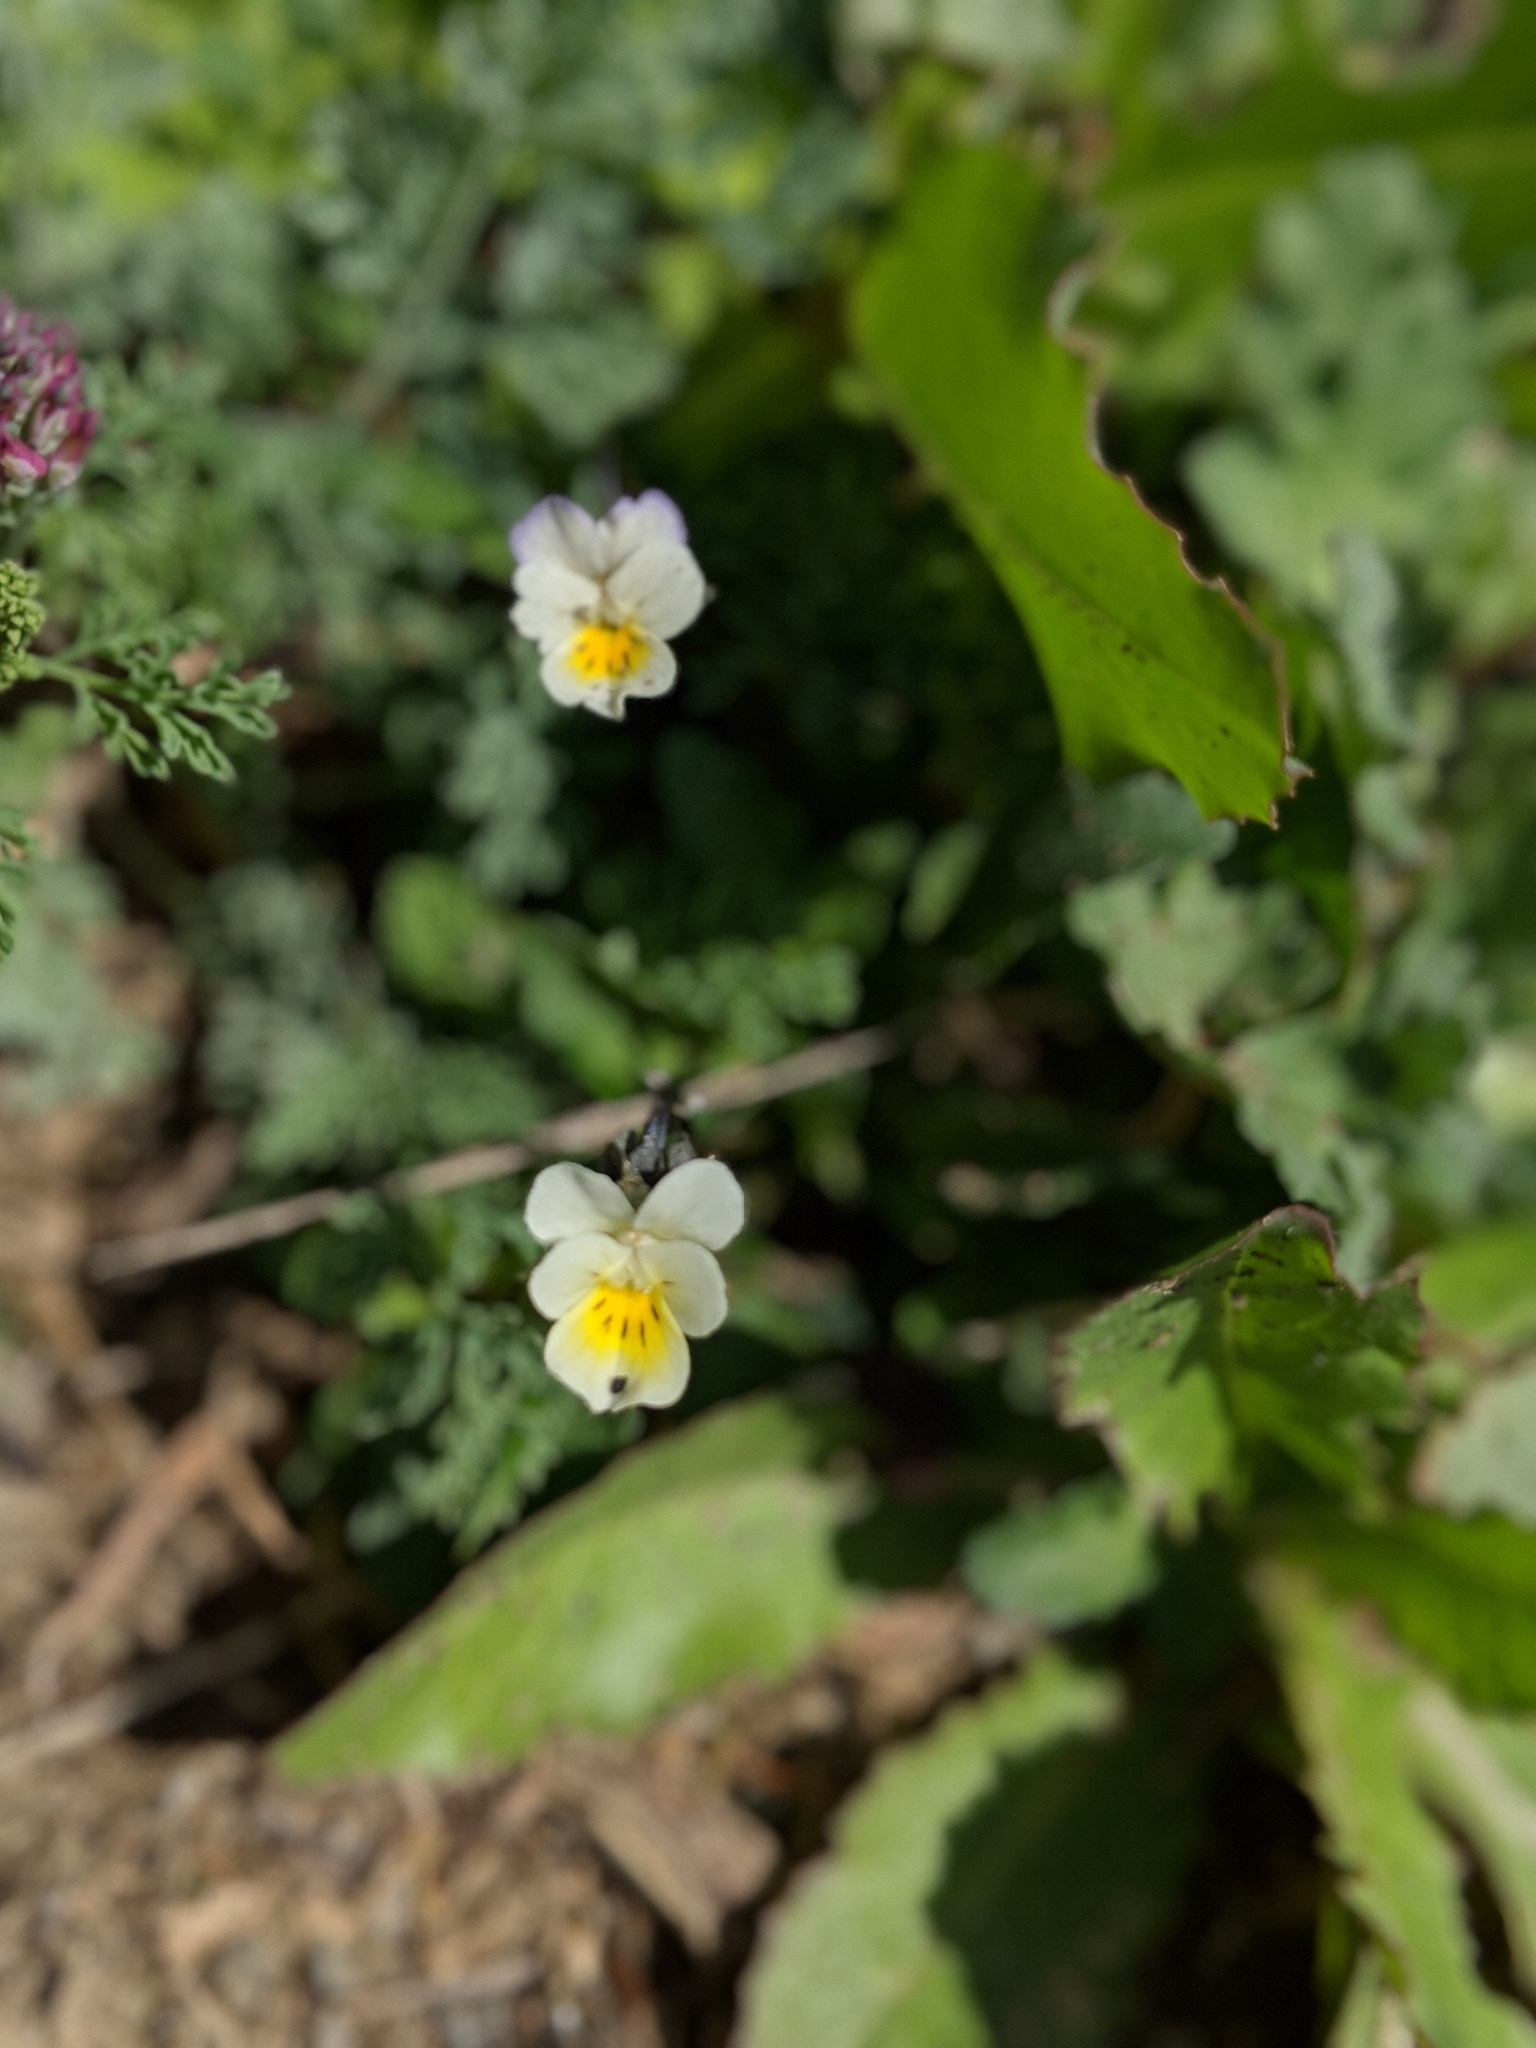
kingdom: Plantae
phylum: Tracheophyta
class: Magnoliopsida
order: Malpighiales
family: Violaceae
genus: Viola
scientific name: Viola arvensis
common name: Field pansy
